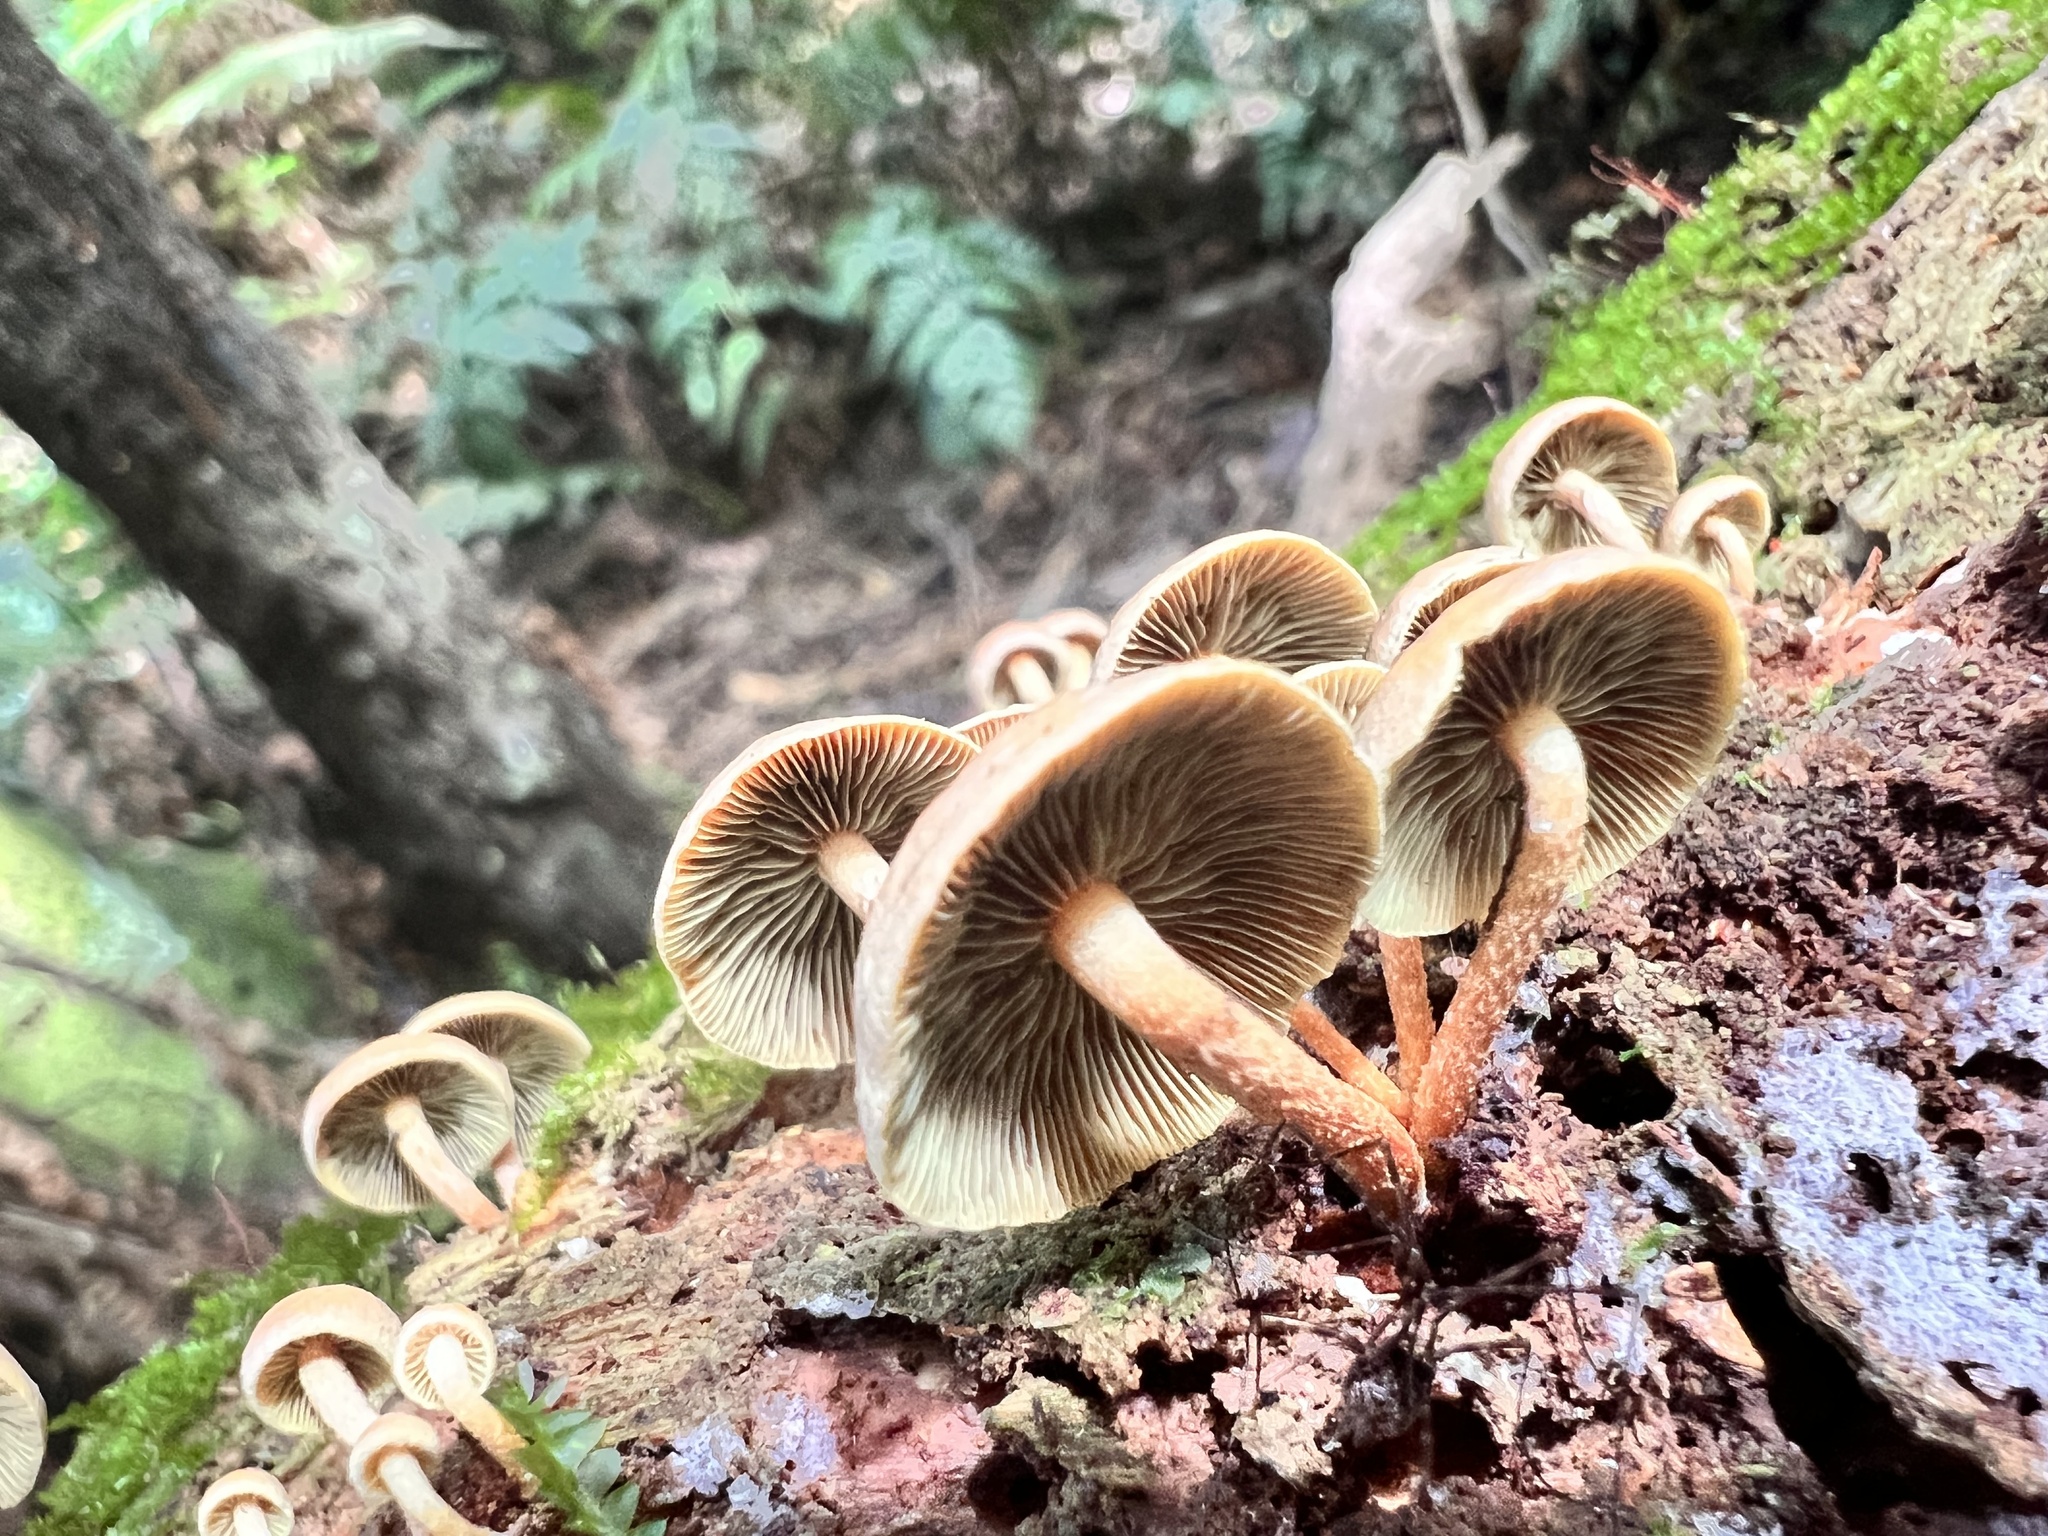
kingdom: Fungi
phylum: Basidiomycota
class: Agaricomycetes
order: Agaricales
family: Strophariaceae
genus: Hypholoma
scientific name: Hypholoma acutum
